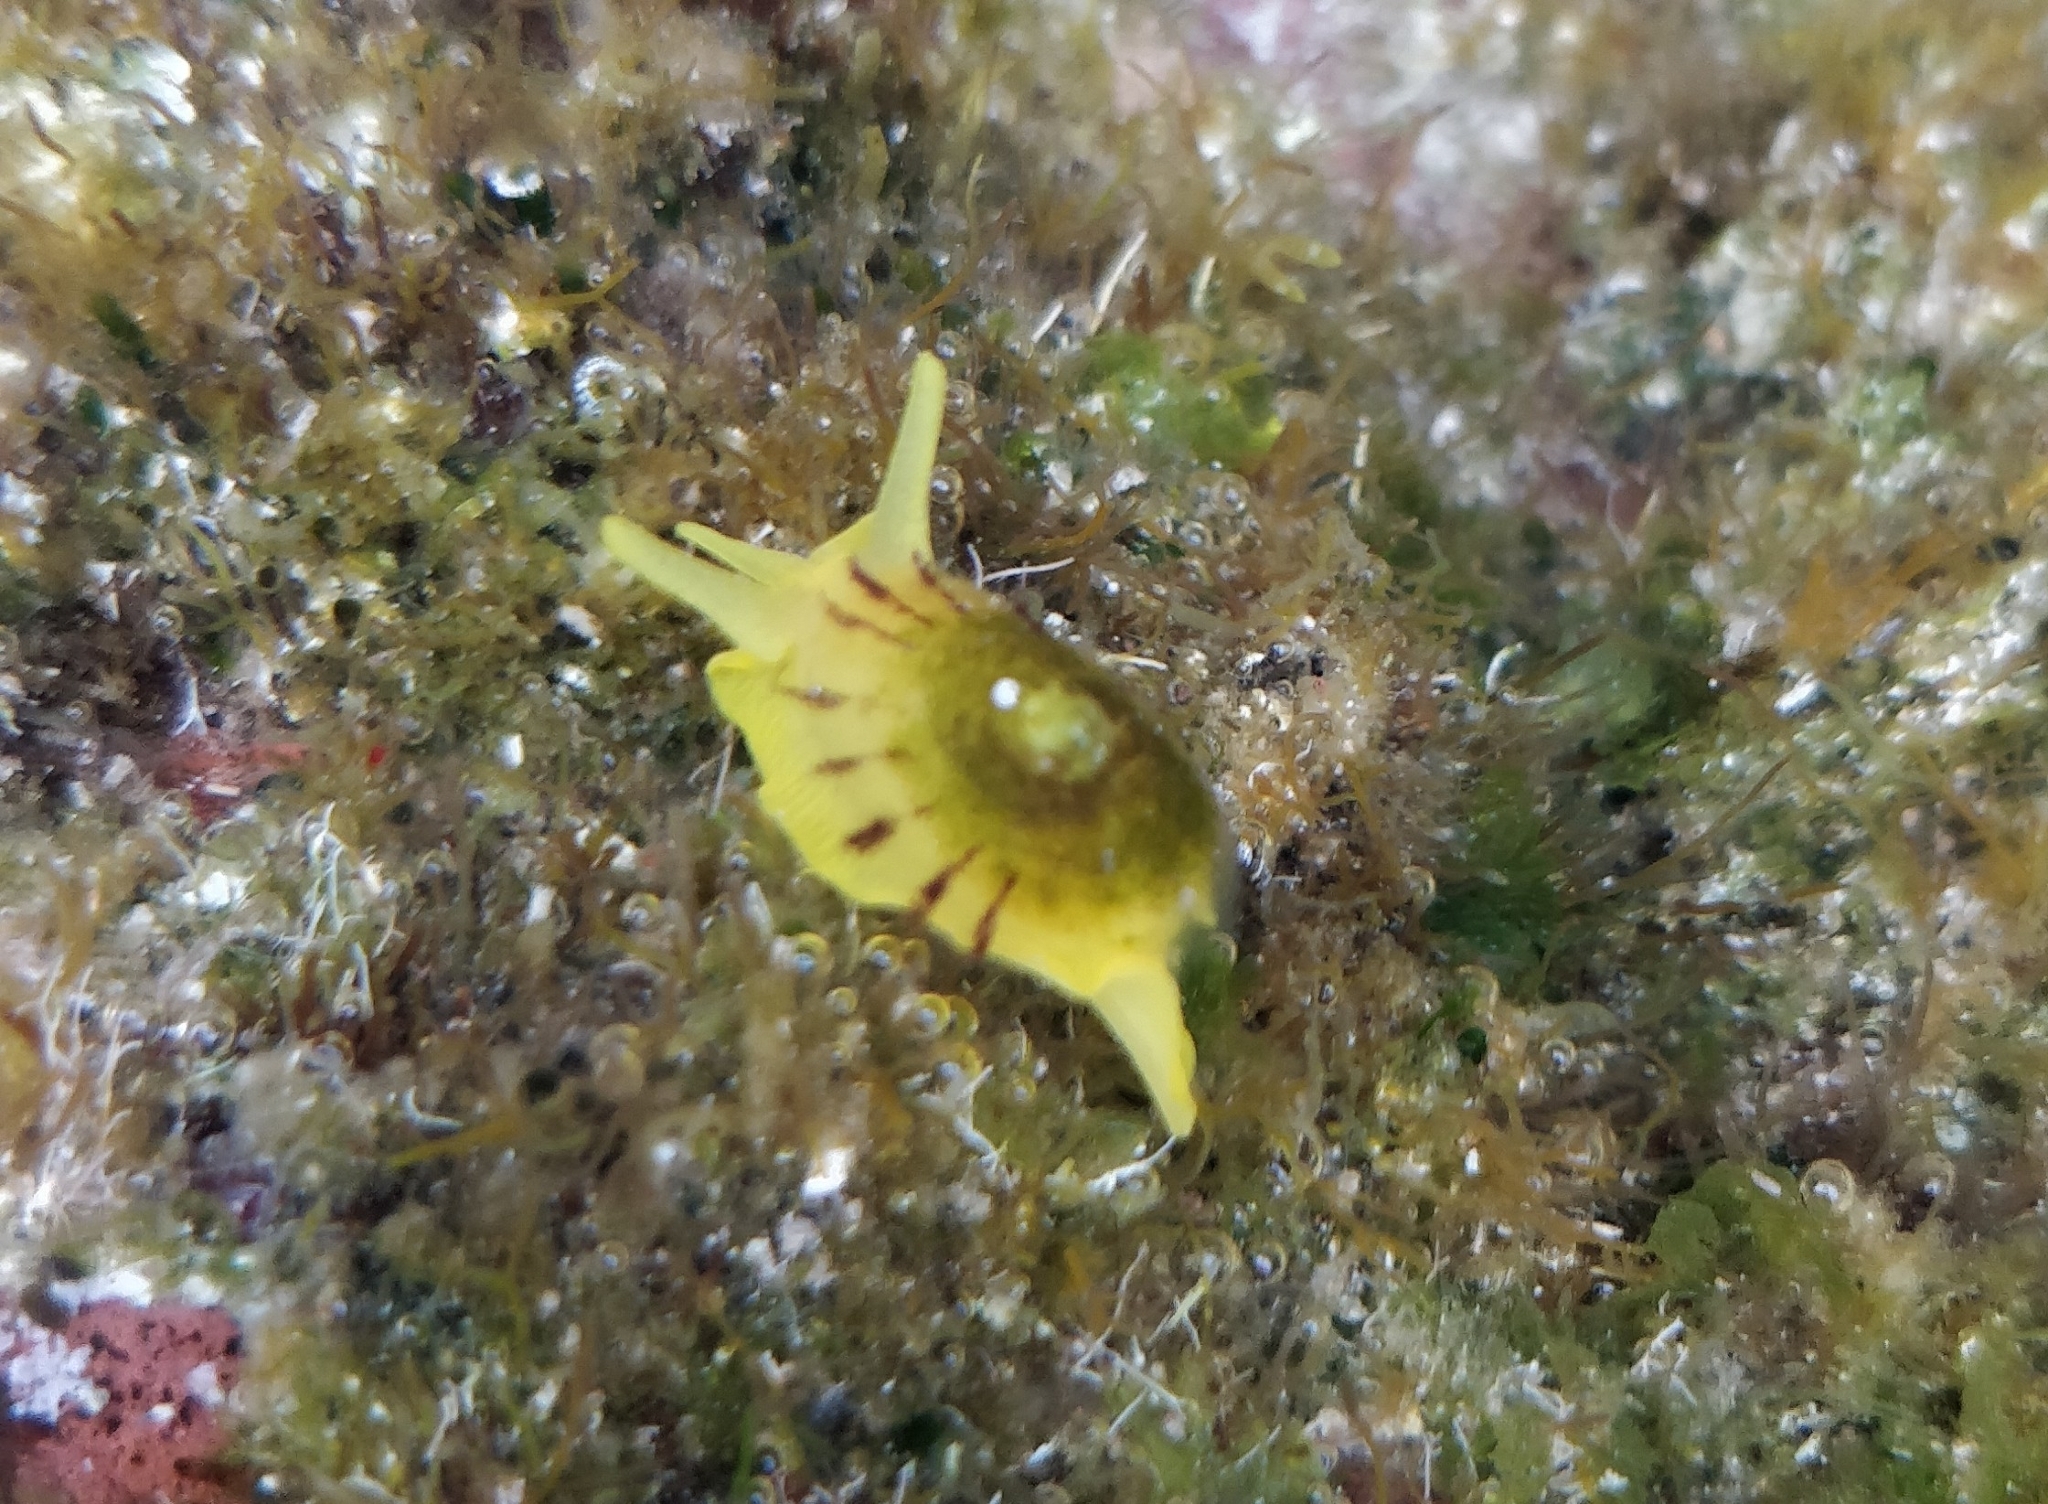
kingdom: Animalia
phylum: Mollusca
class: Gastropoda
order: Umbraculida
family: Tylodinidae
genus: Tylodina
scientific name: Tylodina perversa
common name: Yellow tylodina
